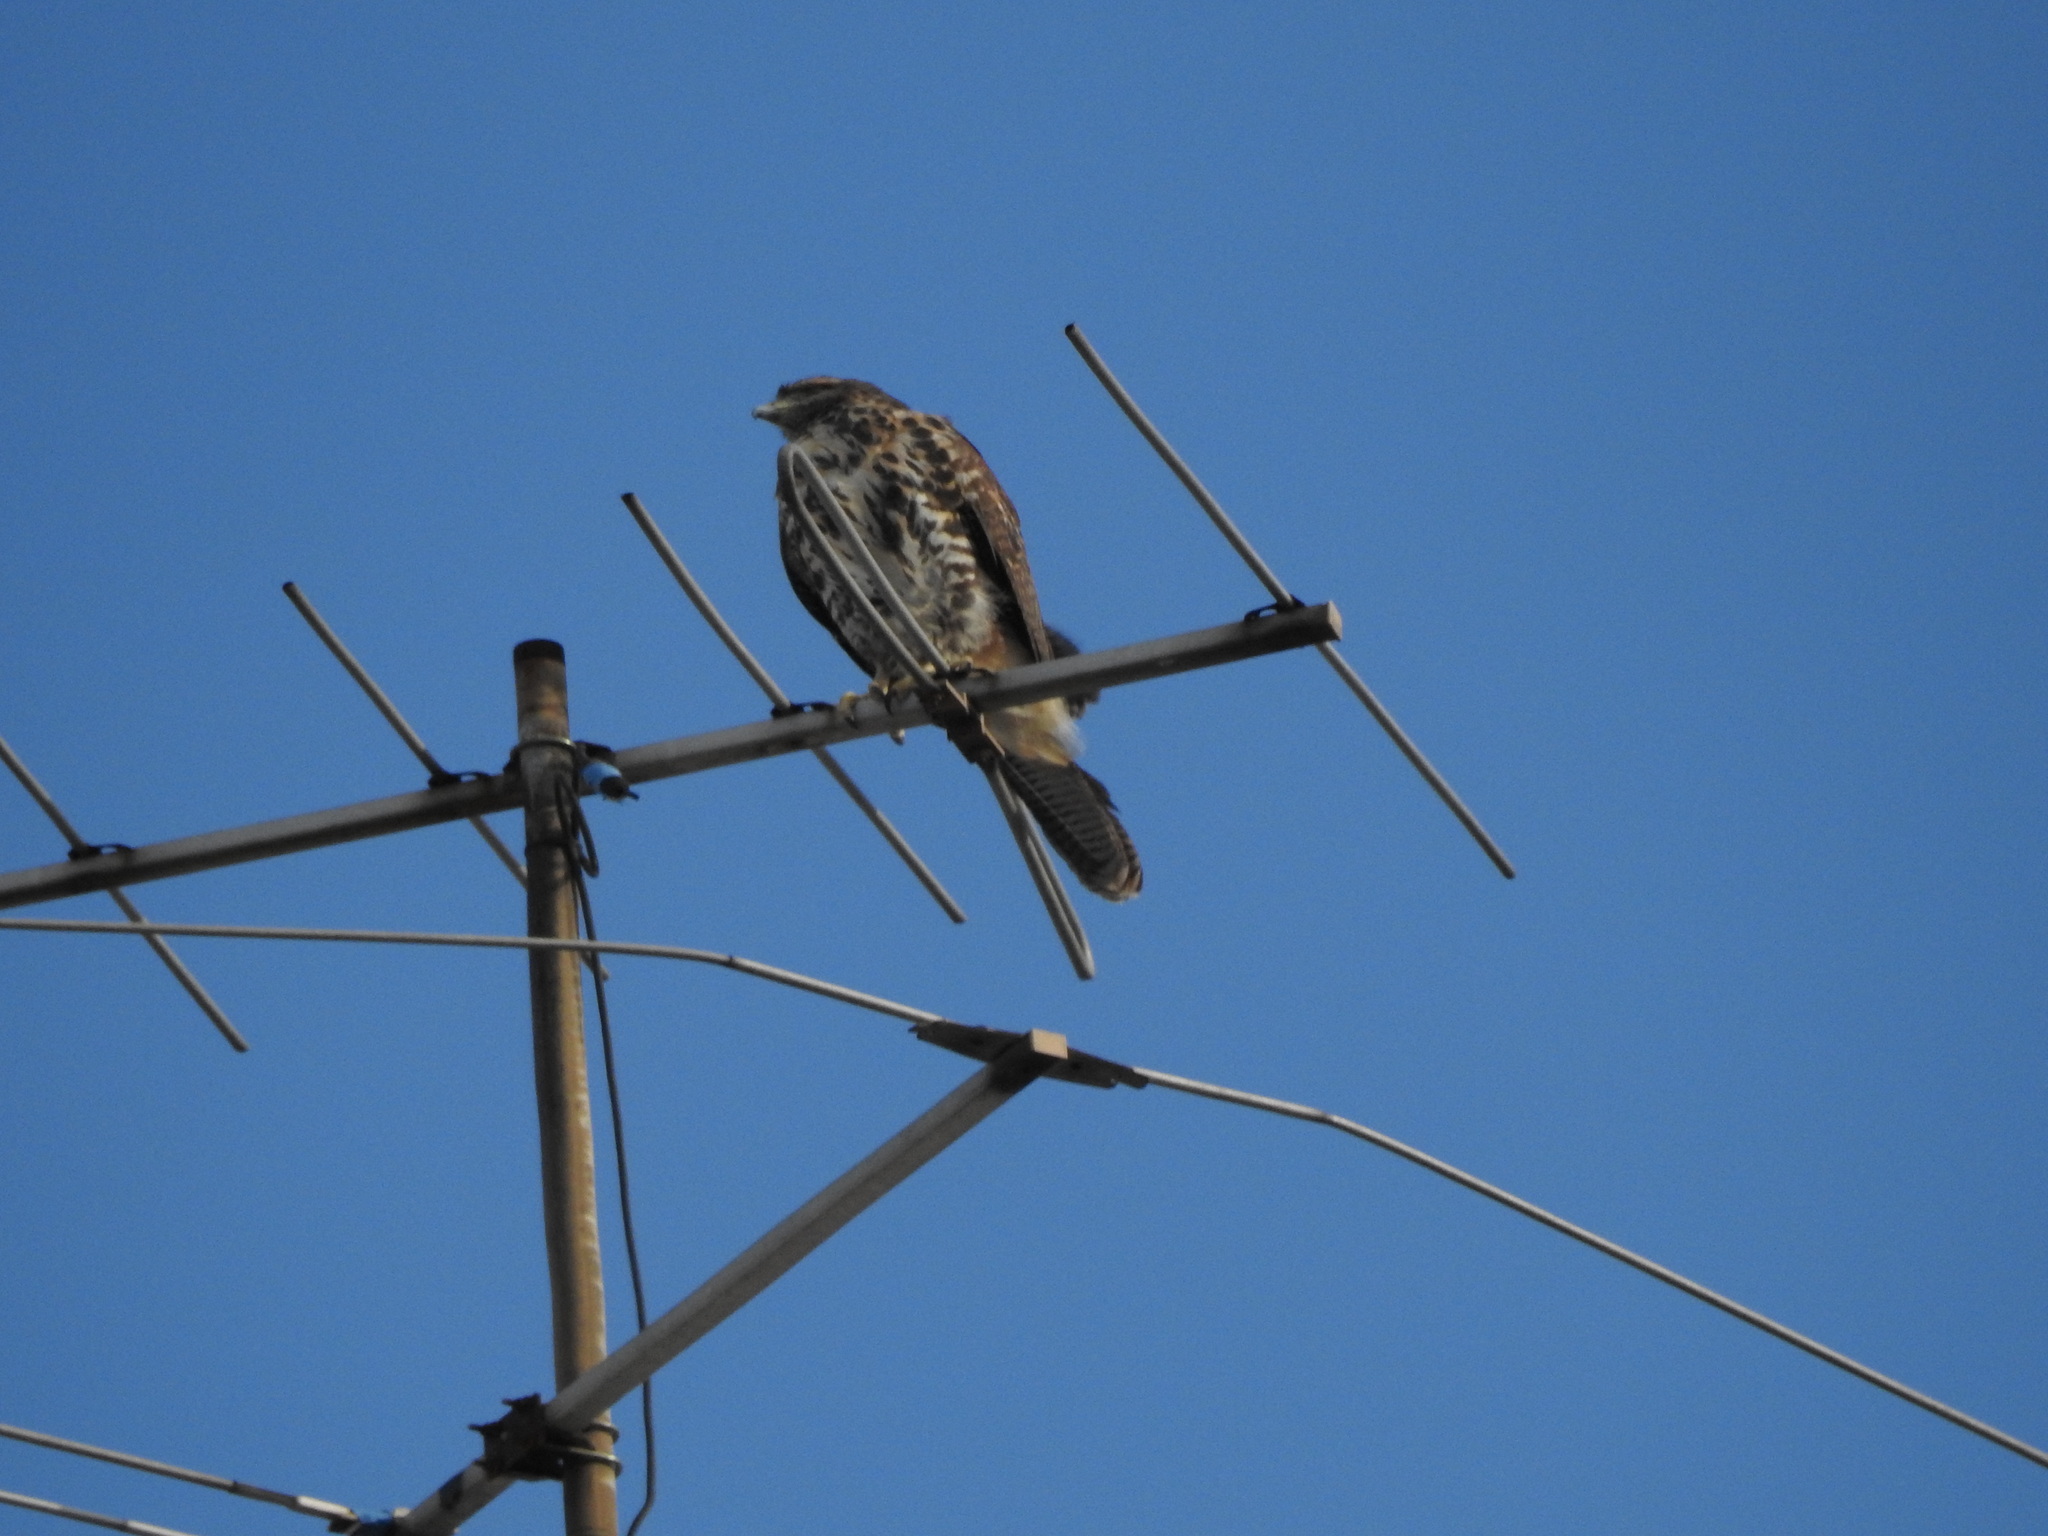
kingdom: Animalia
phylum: Chordata
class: Aves
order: Accipitriformes
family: Accipitridae
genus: Parabuteo
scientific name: Parabuteo unicinctus
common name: Harris's hawk
